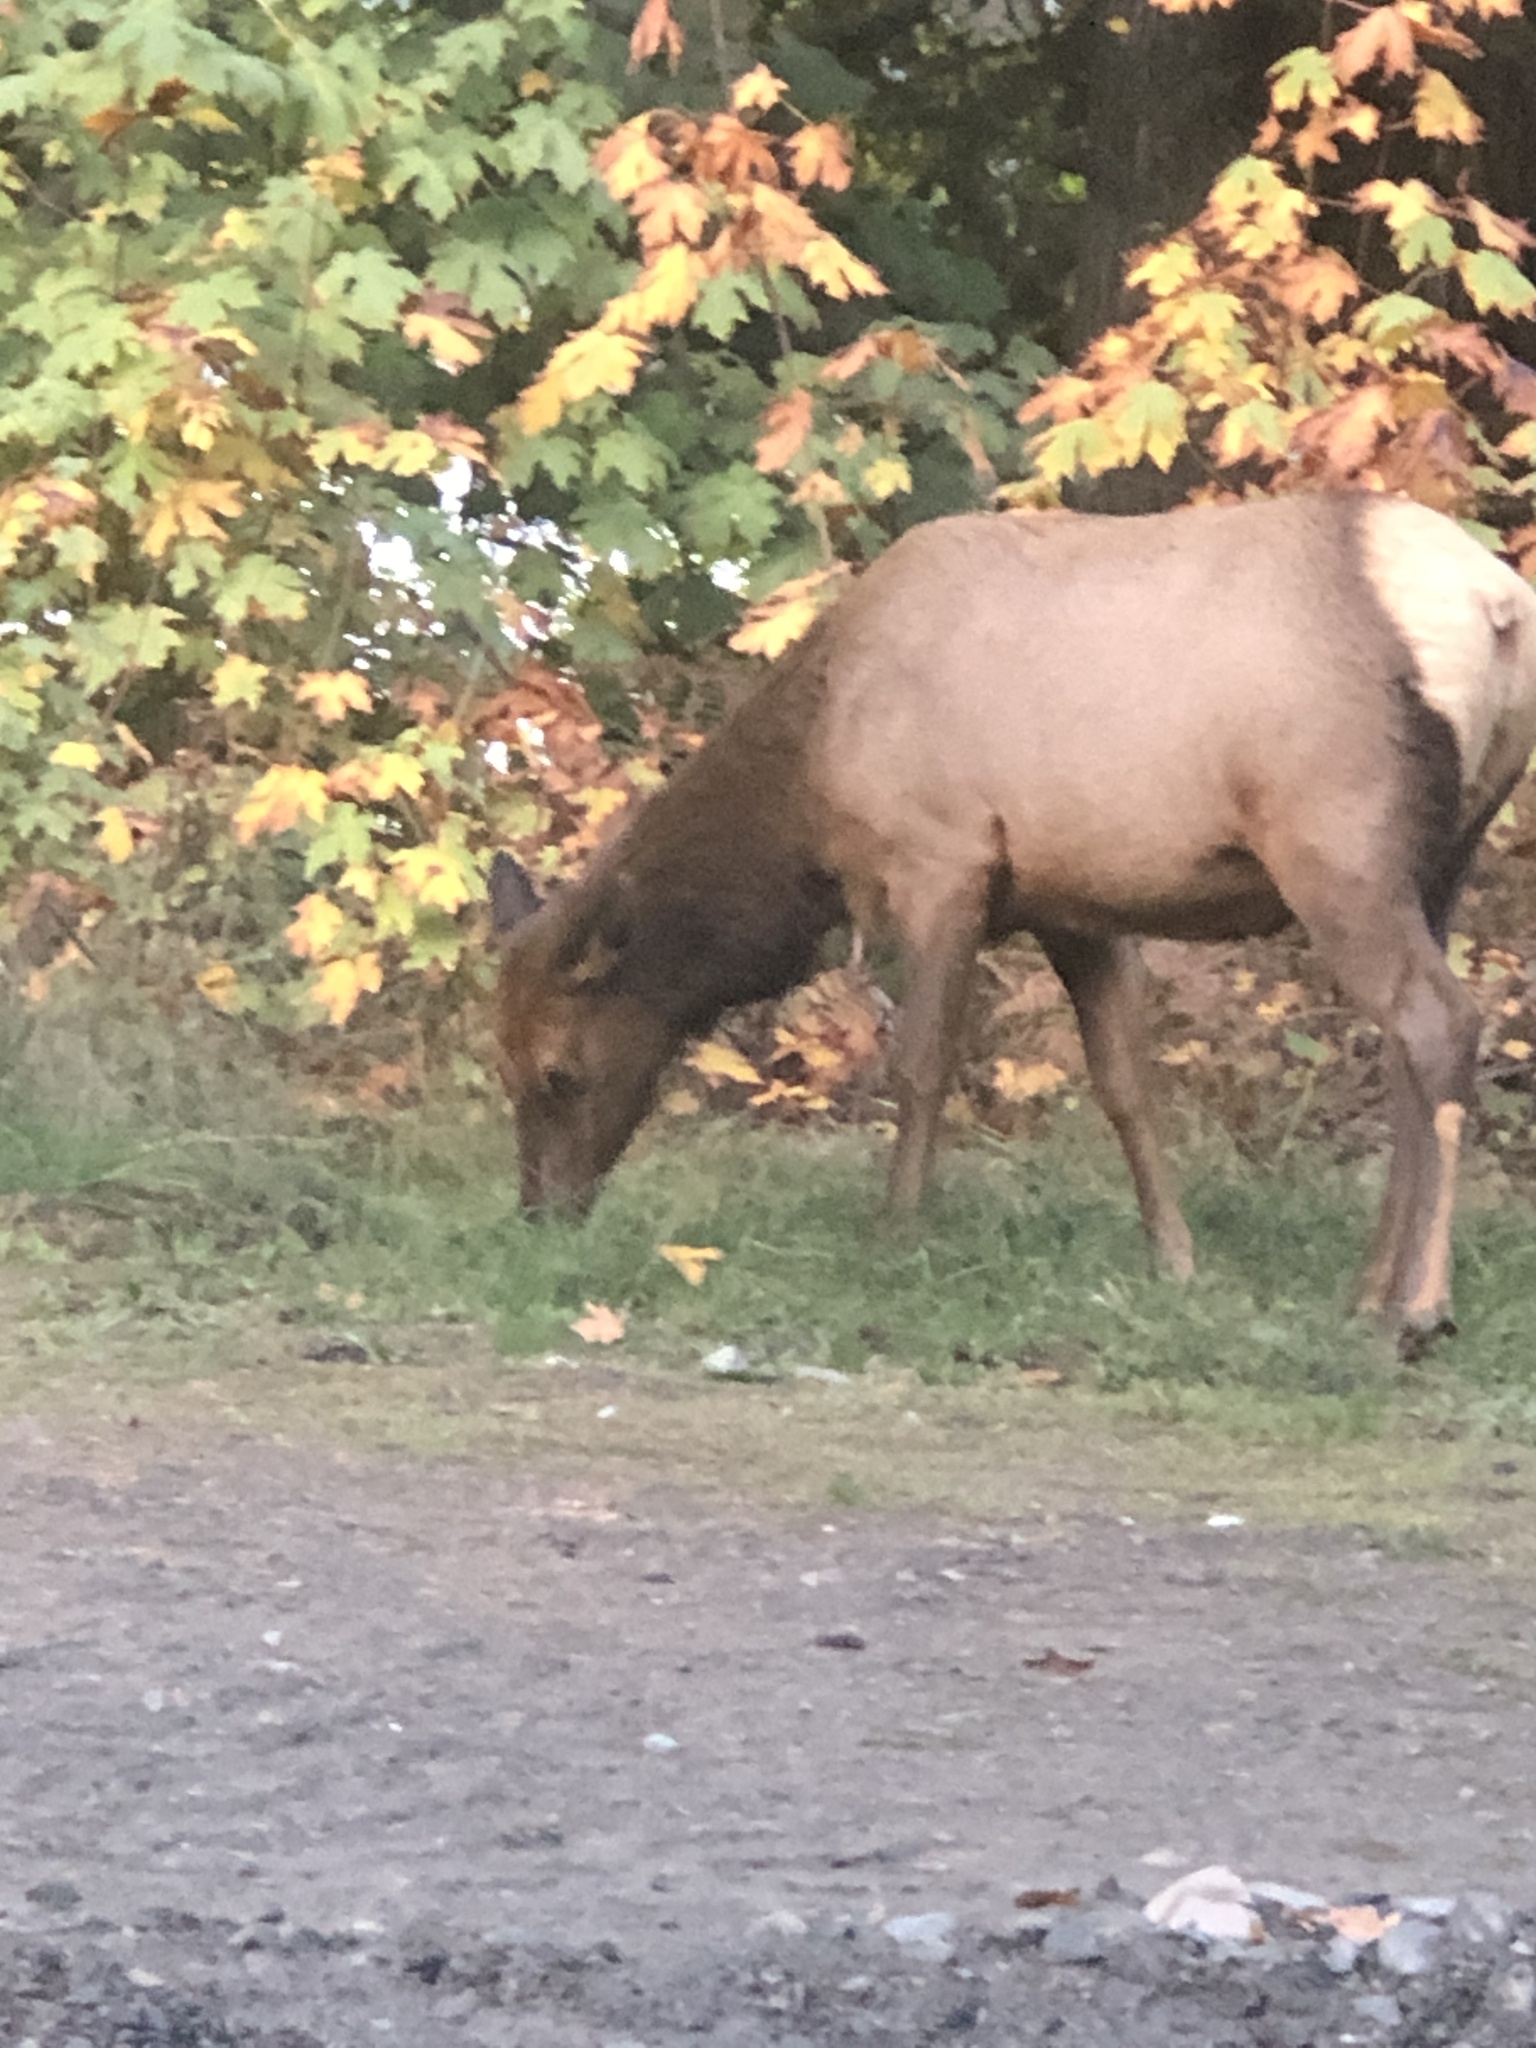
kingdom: Animalia
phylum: Chordata
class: Mammalia
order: Artiodactyla
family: Cervidae
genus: Cervus
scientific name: Cervus elaphus
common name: Red deer
